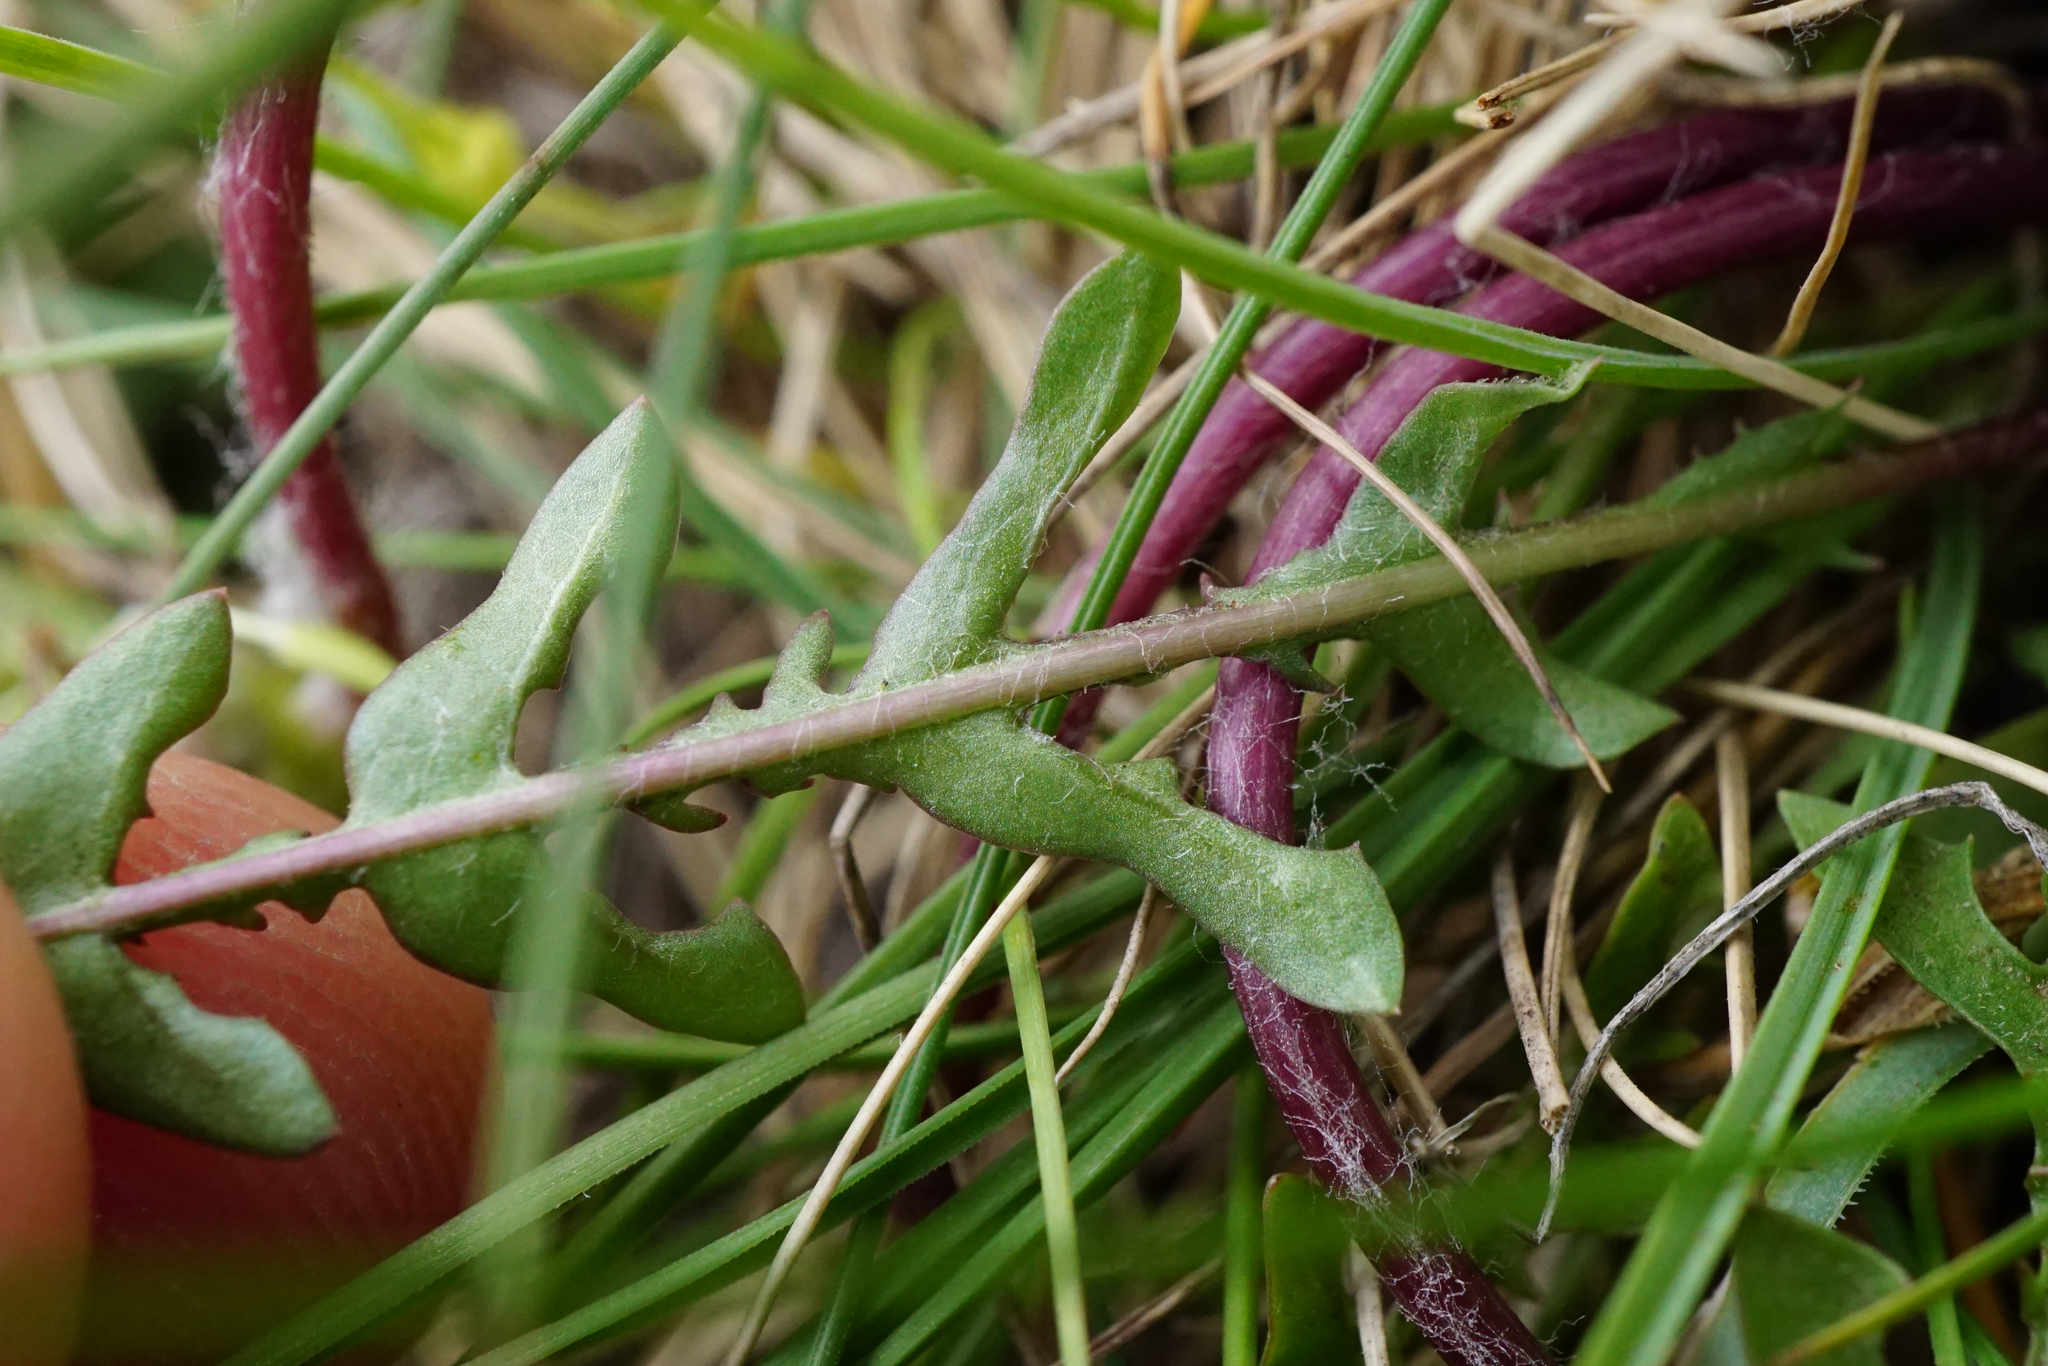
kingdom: Plantae
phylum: Tracheophyta
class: Magnoliopsida
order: Asterales
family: Asteraceae
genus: Taraxacum
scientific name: Taraxacum
